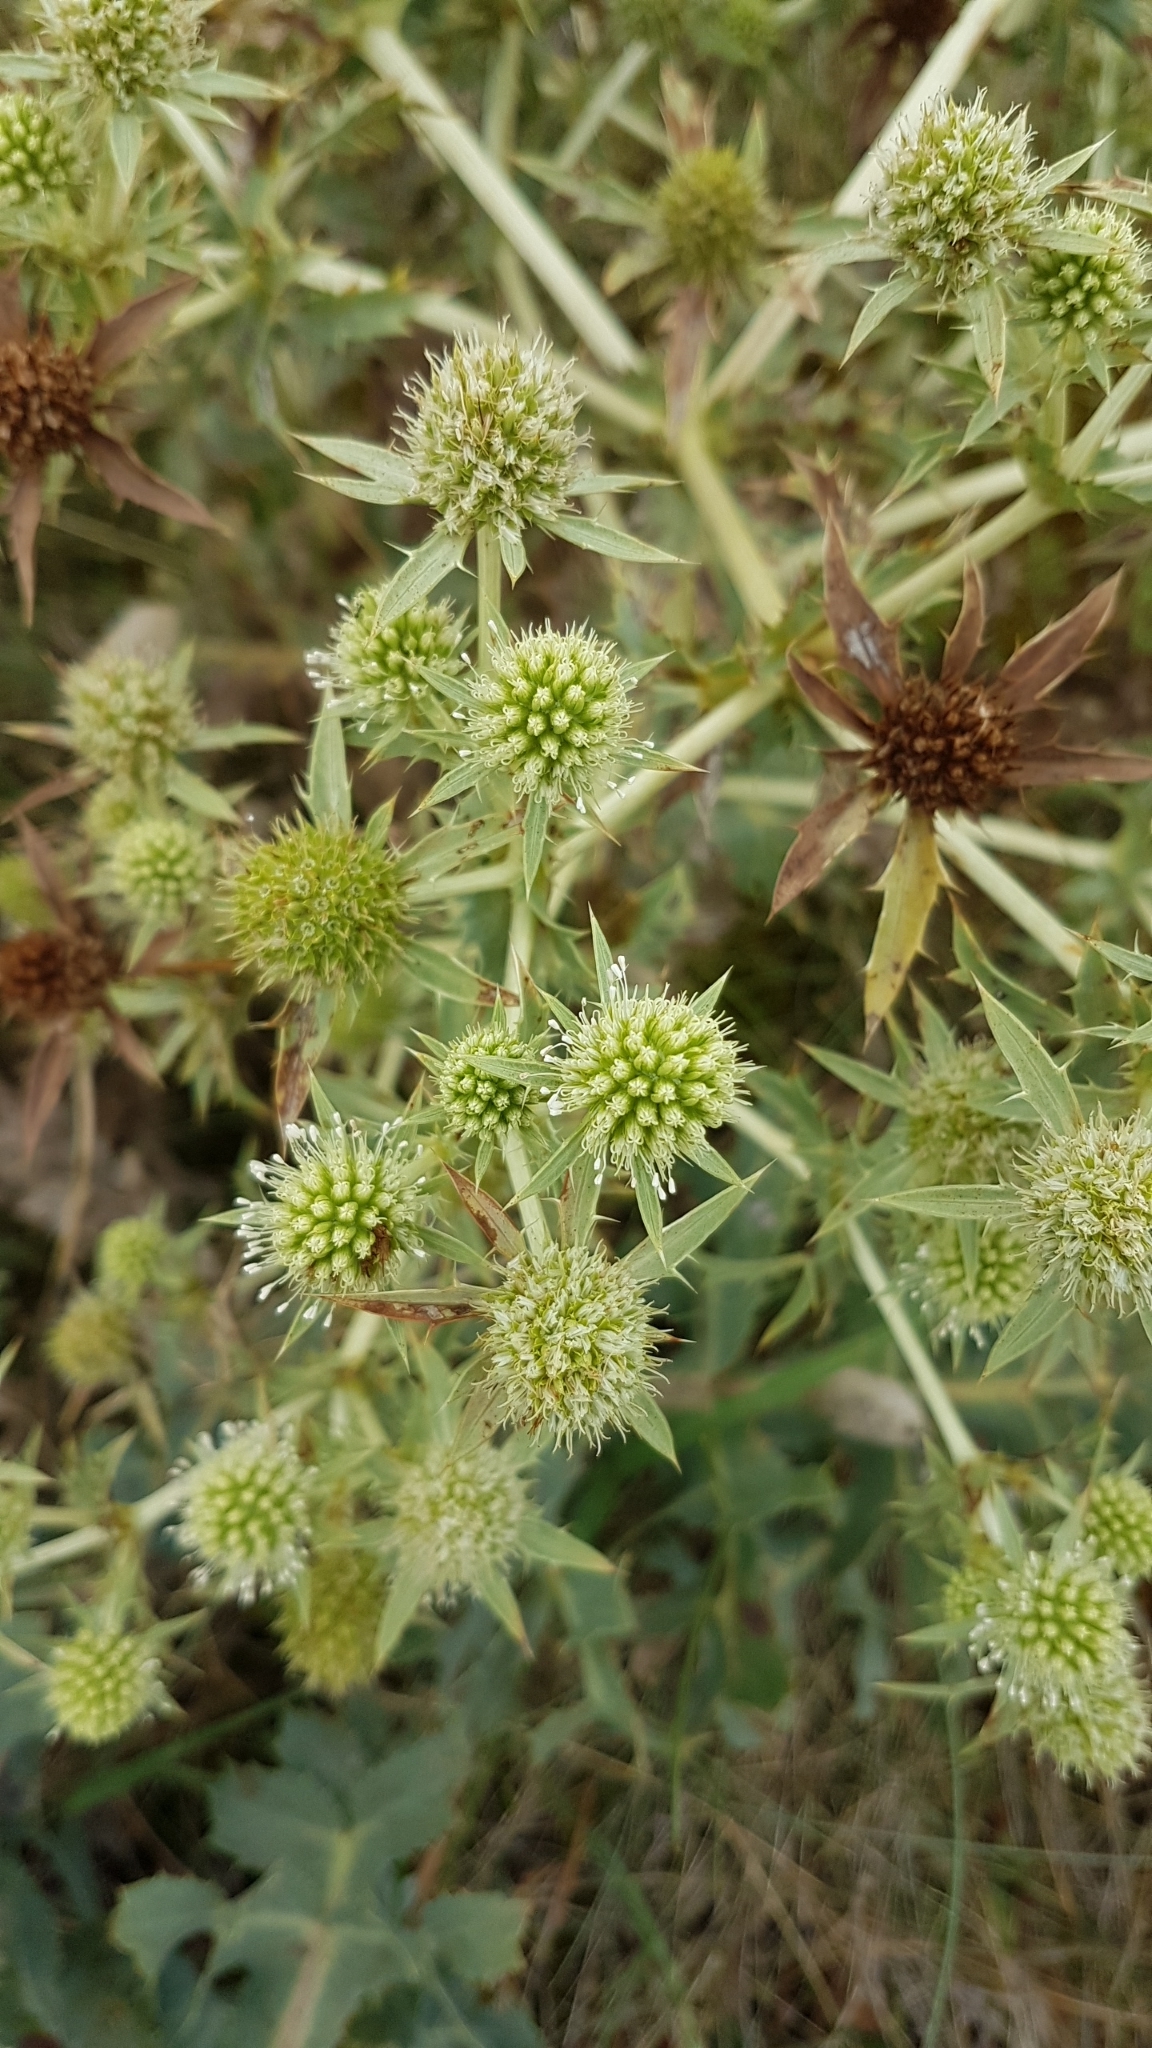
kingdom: Plantae
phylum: Tracheophyta
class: Magnoliopsida
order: Apiales
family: Apiaceae
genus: Eryngium
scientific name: Eryngium campestre
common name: Field eryngo
